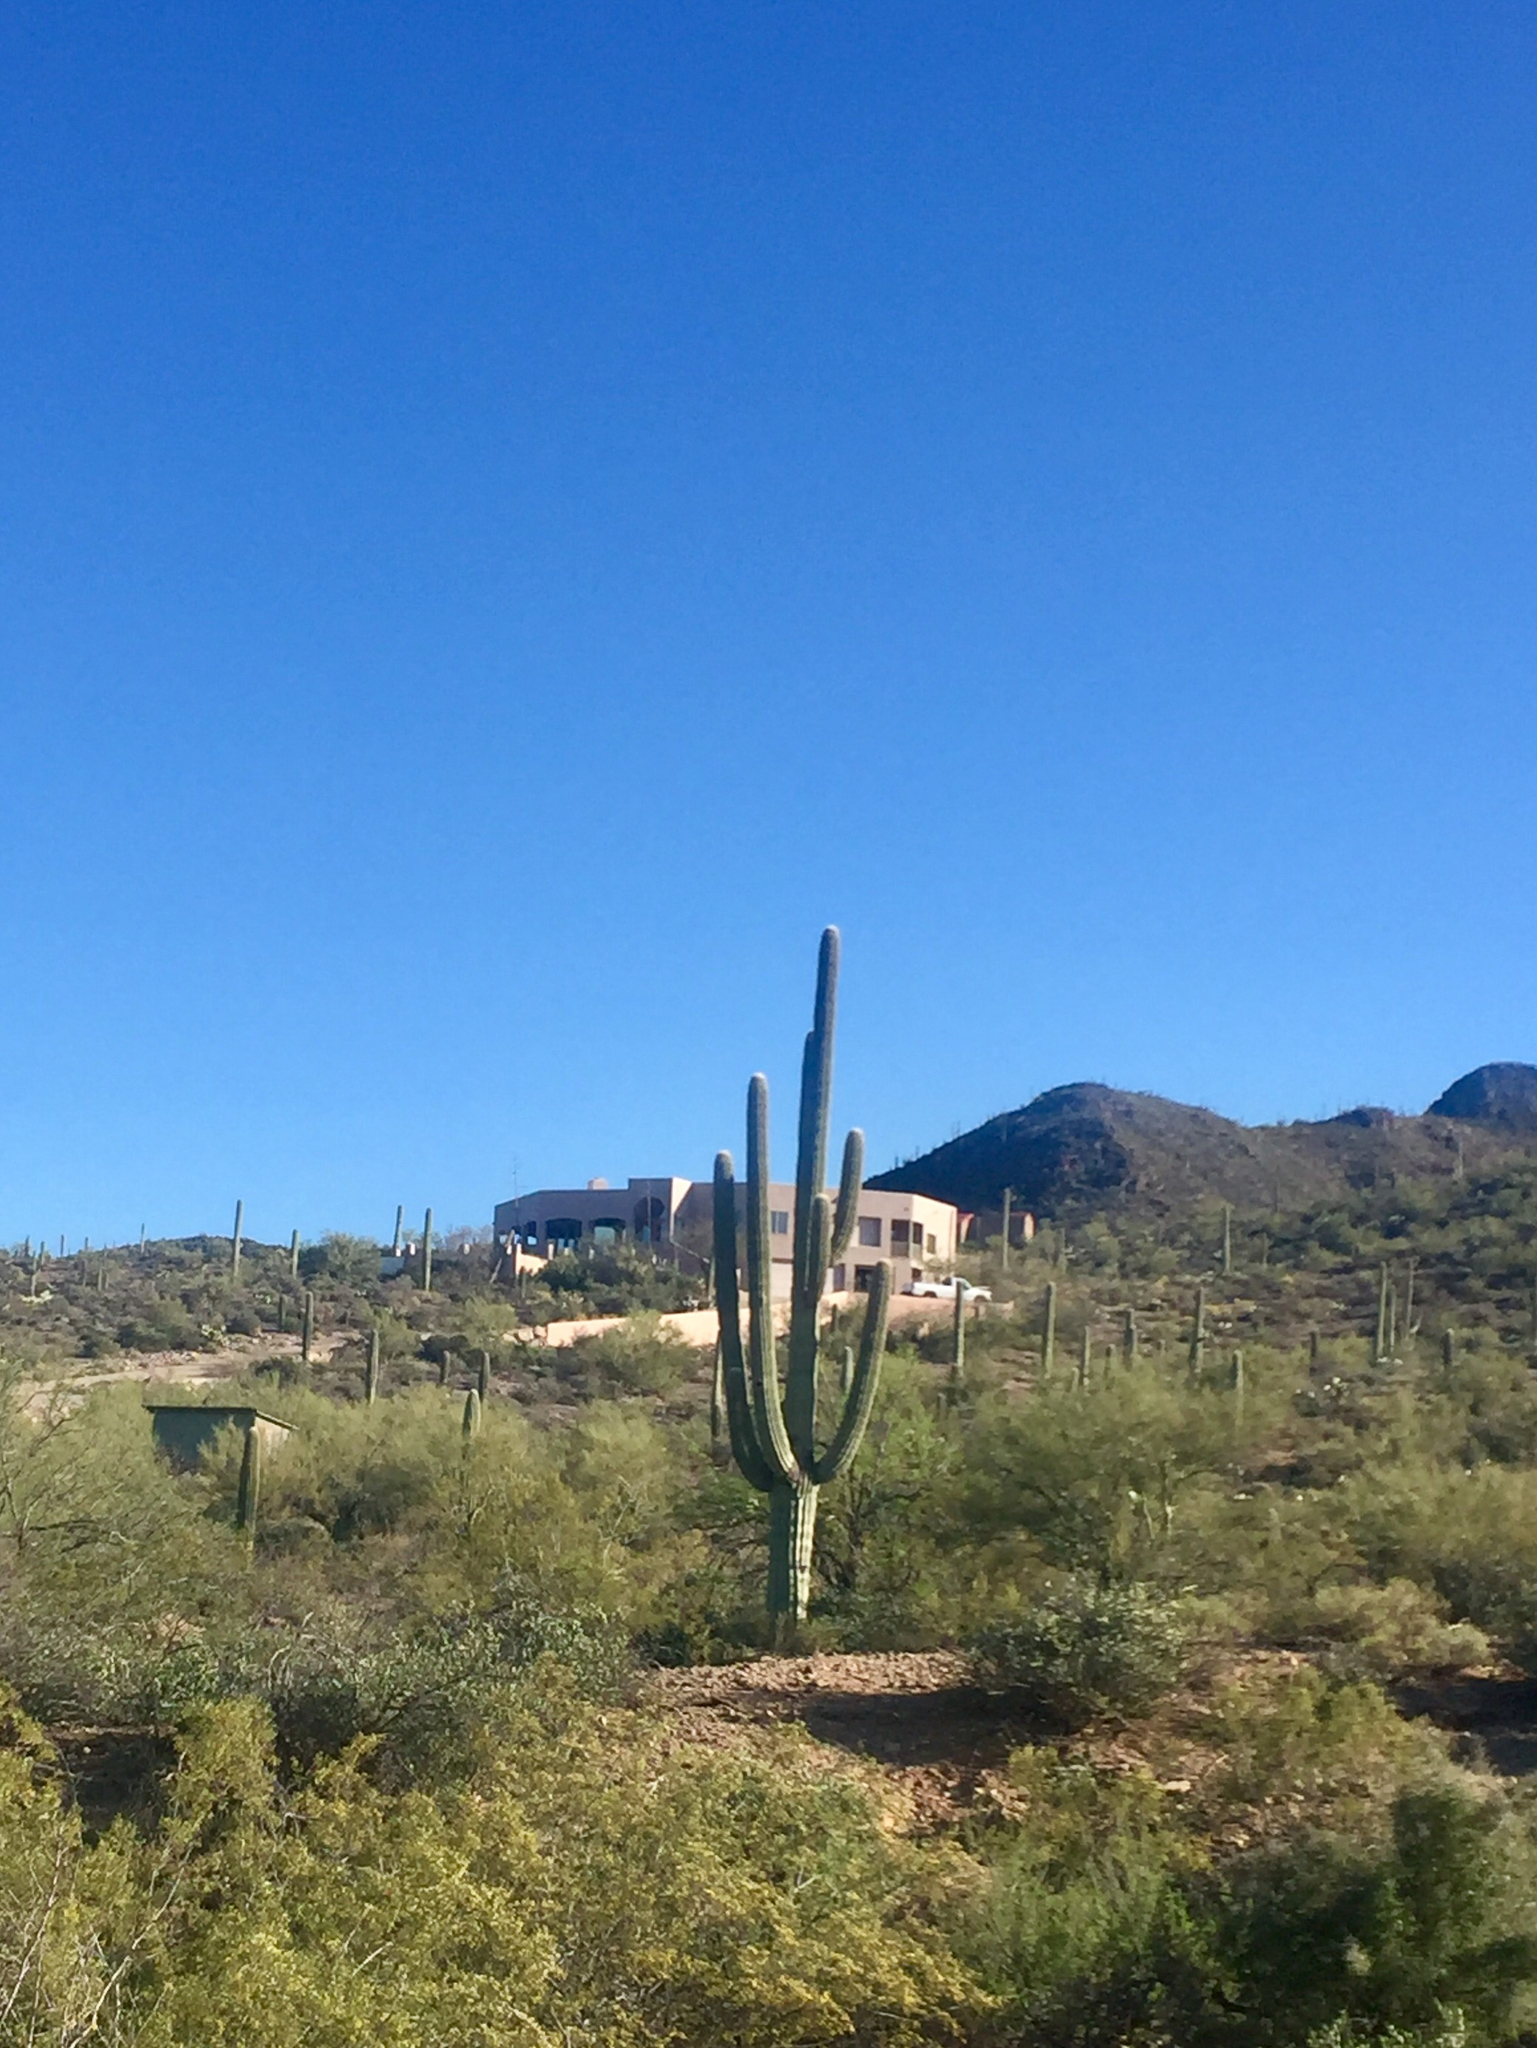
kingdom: Plantae
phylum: Tracheophyta
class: Magnoliopsida
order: Caryophyllales
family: Cactaceae
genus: Carnegiea
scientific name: Carnegiea gigantea
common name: Saguaro
